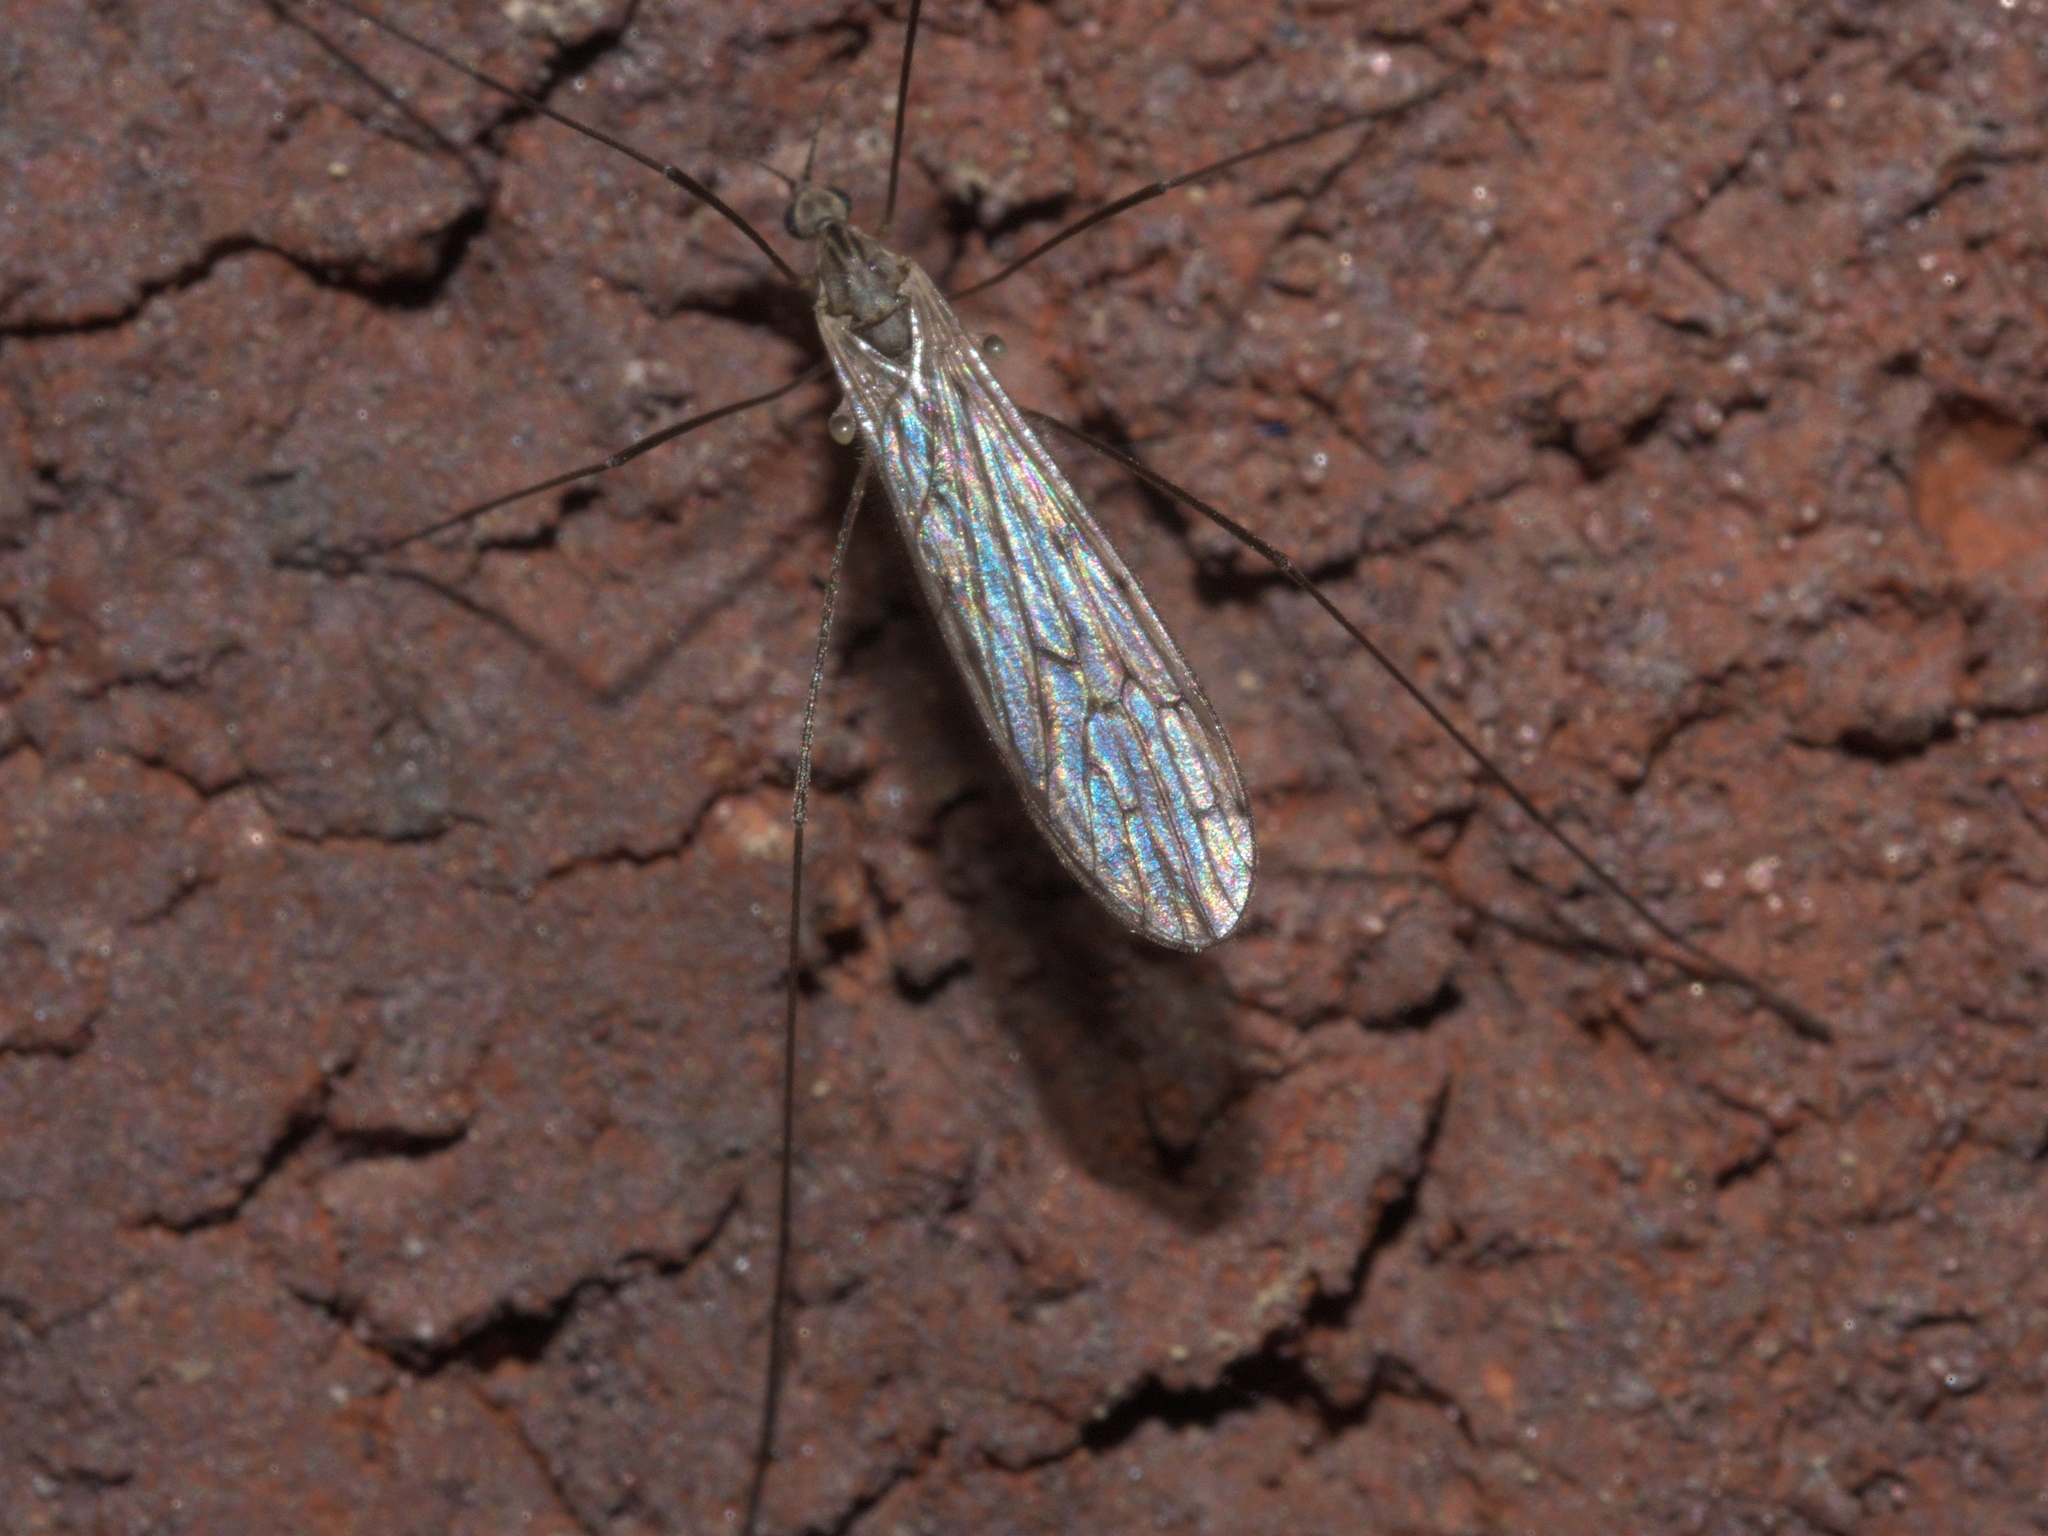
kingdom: Animalia
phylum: Arthropoda
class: Insecta
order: Diptera
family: Limoniidae
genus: Symplecta
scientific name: Symplecta cana
